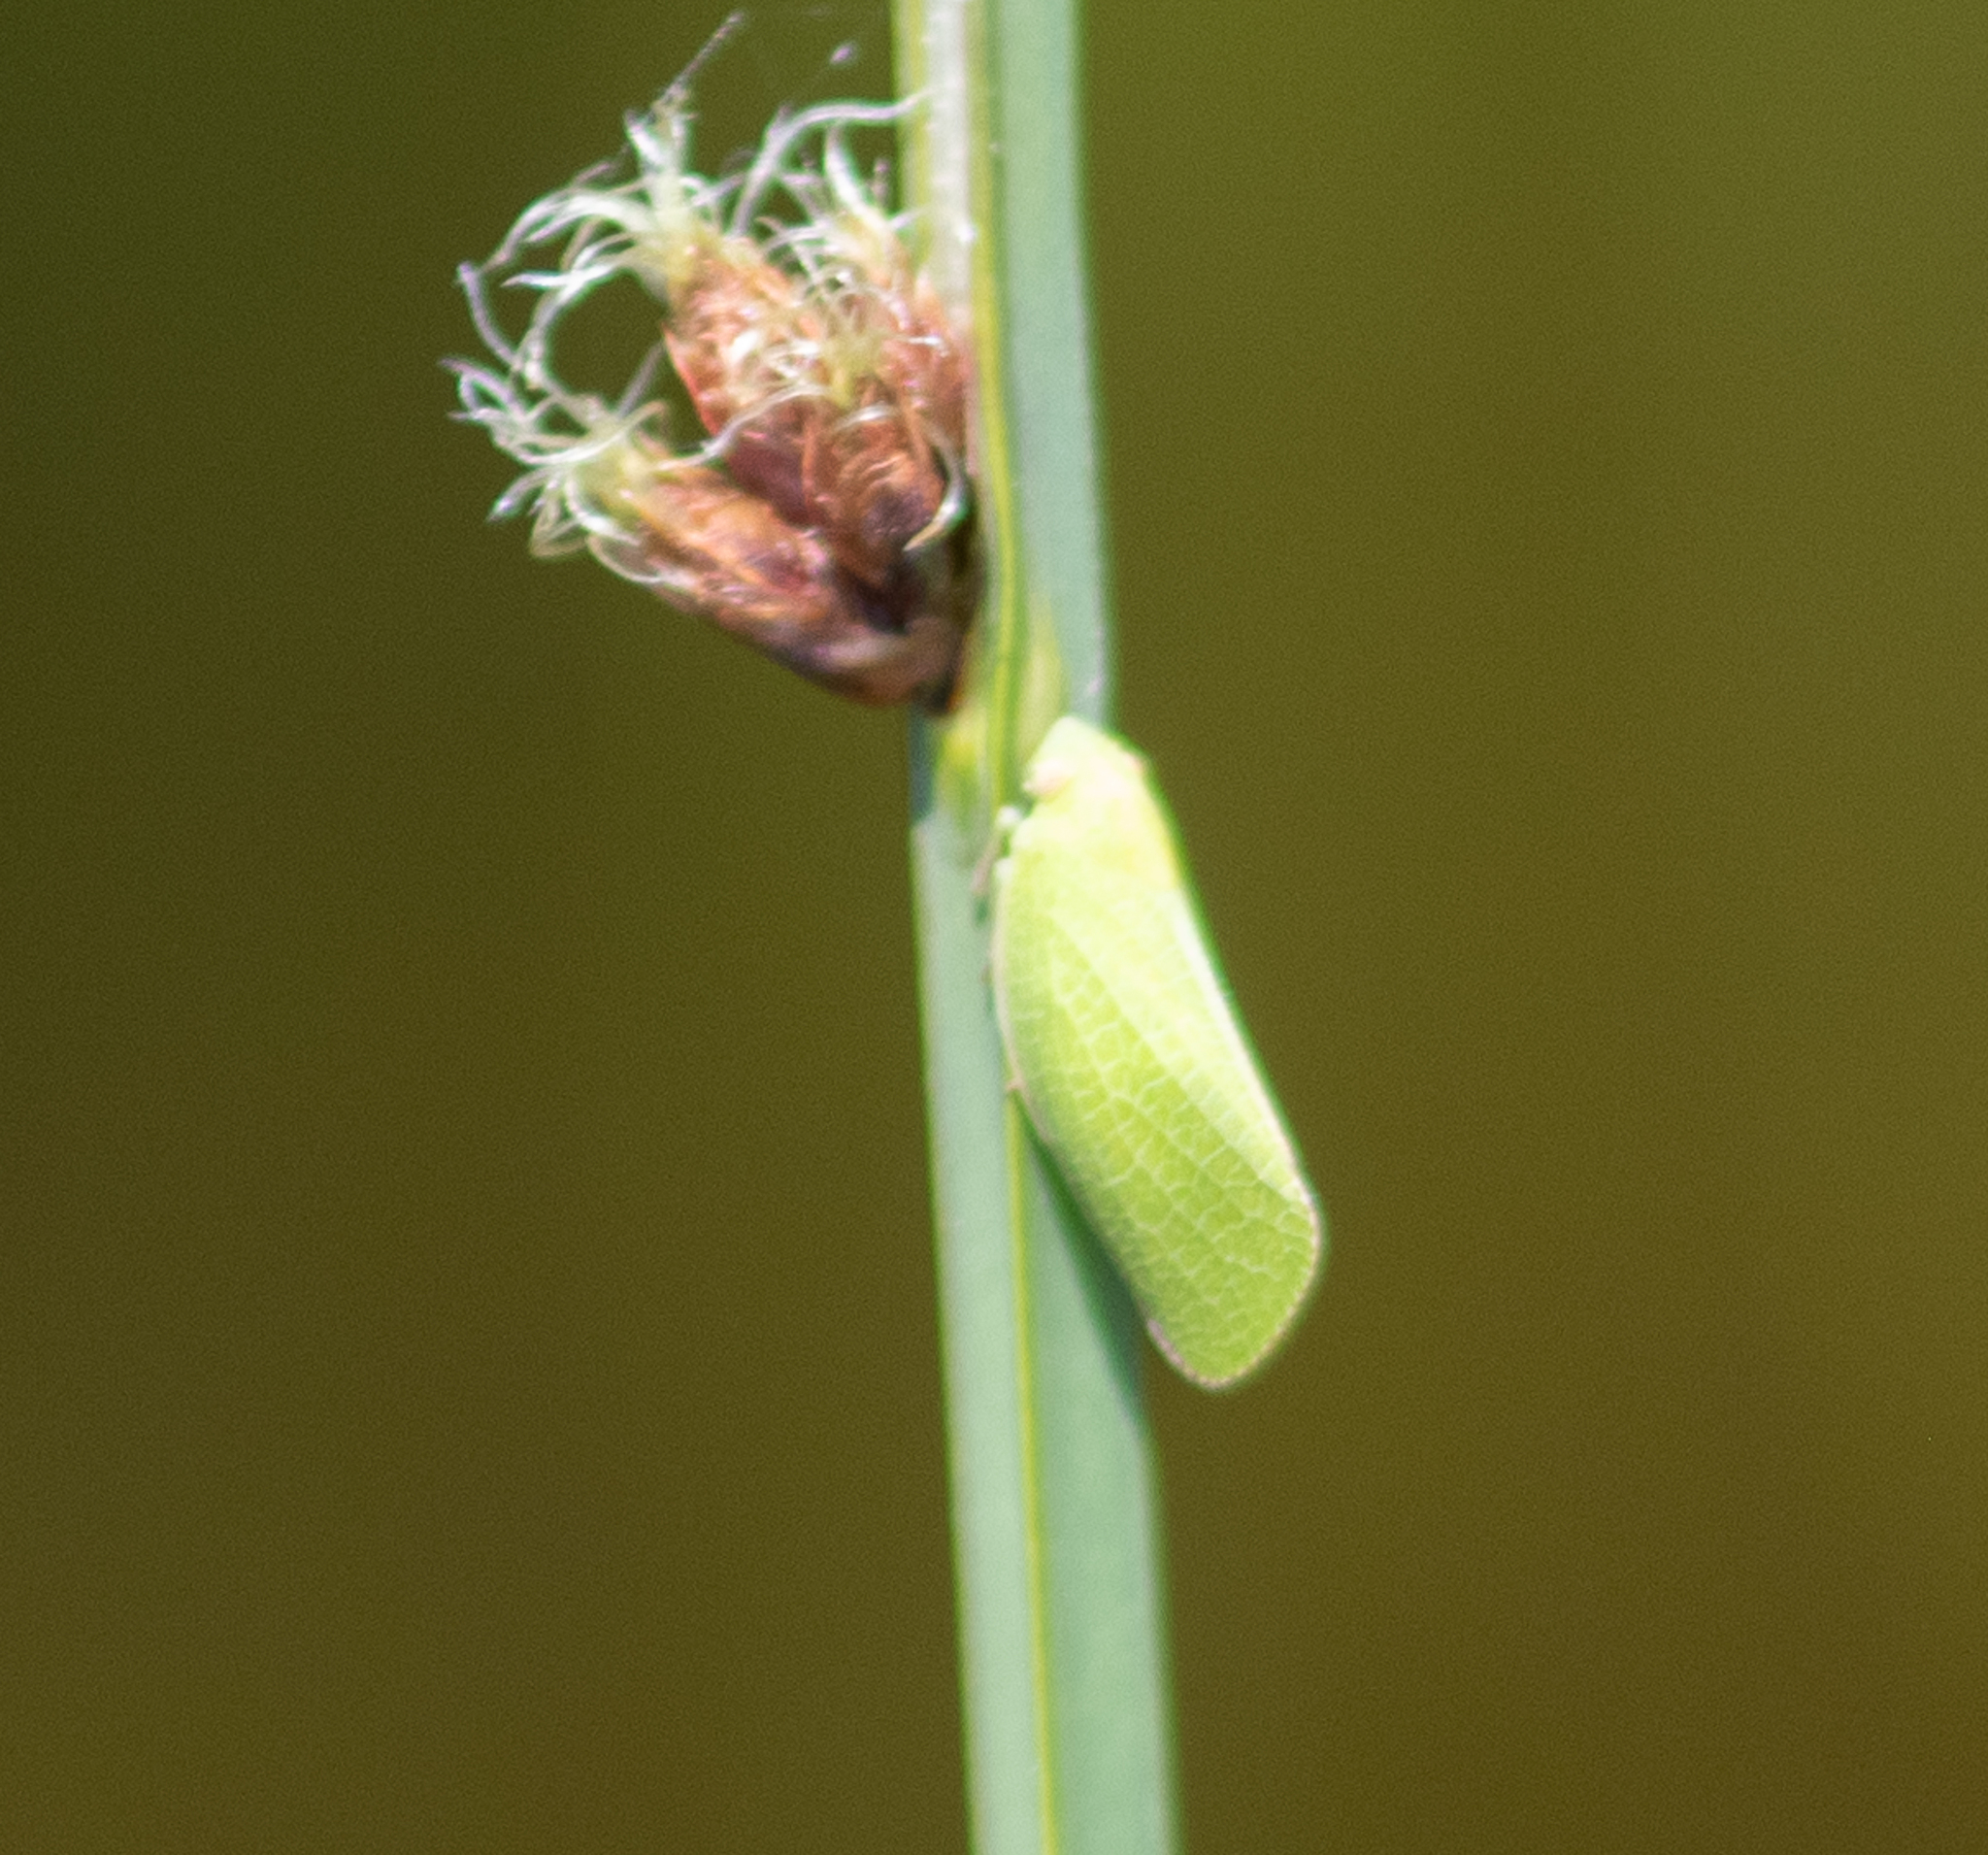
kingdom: Animalia
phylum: Arthropoda
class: Insecta
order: Hemiptera
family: Acanaloniidae
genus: Acanalonia
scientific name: Acanalonia conica
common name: Green cone-headed planthopper
